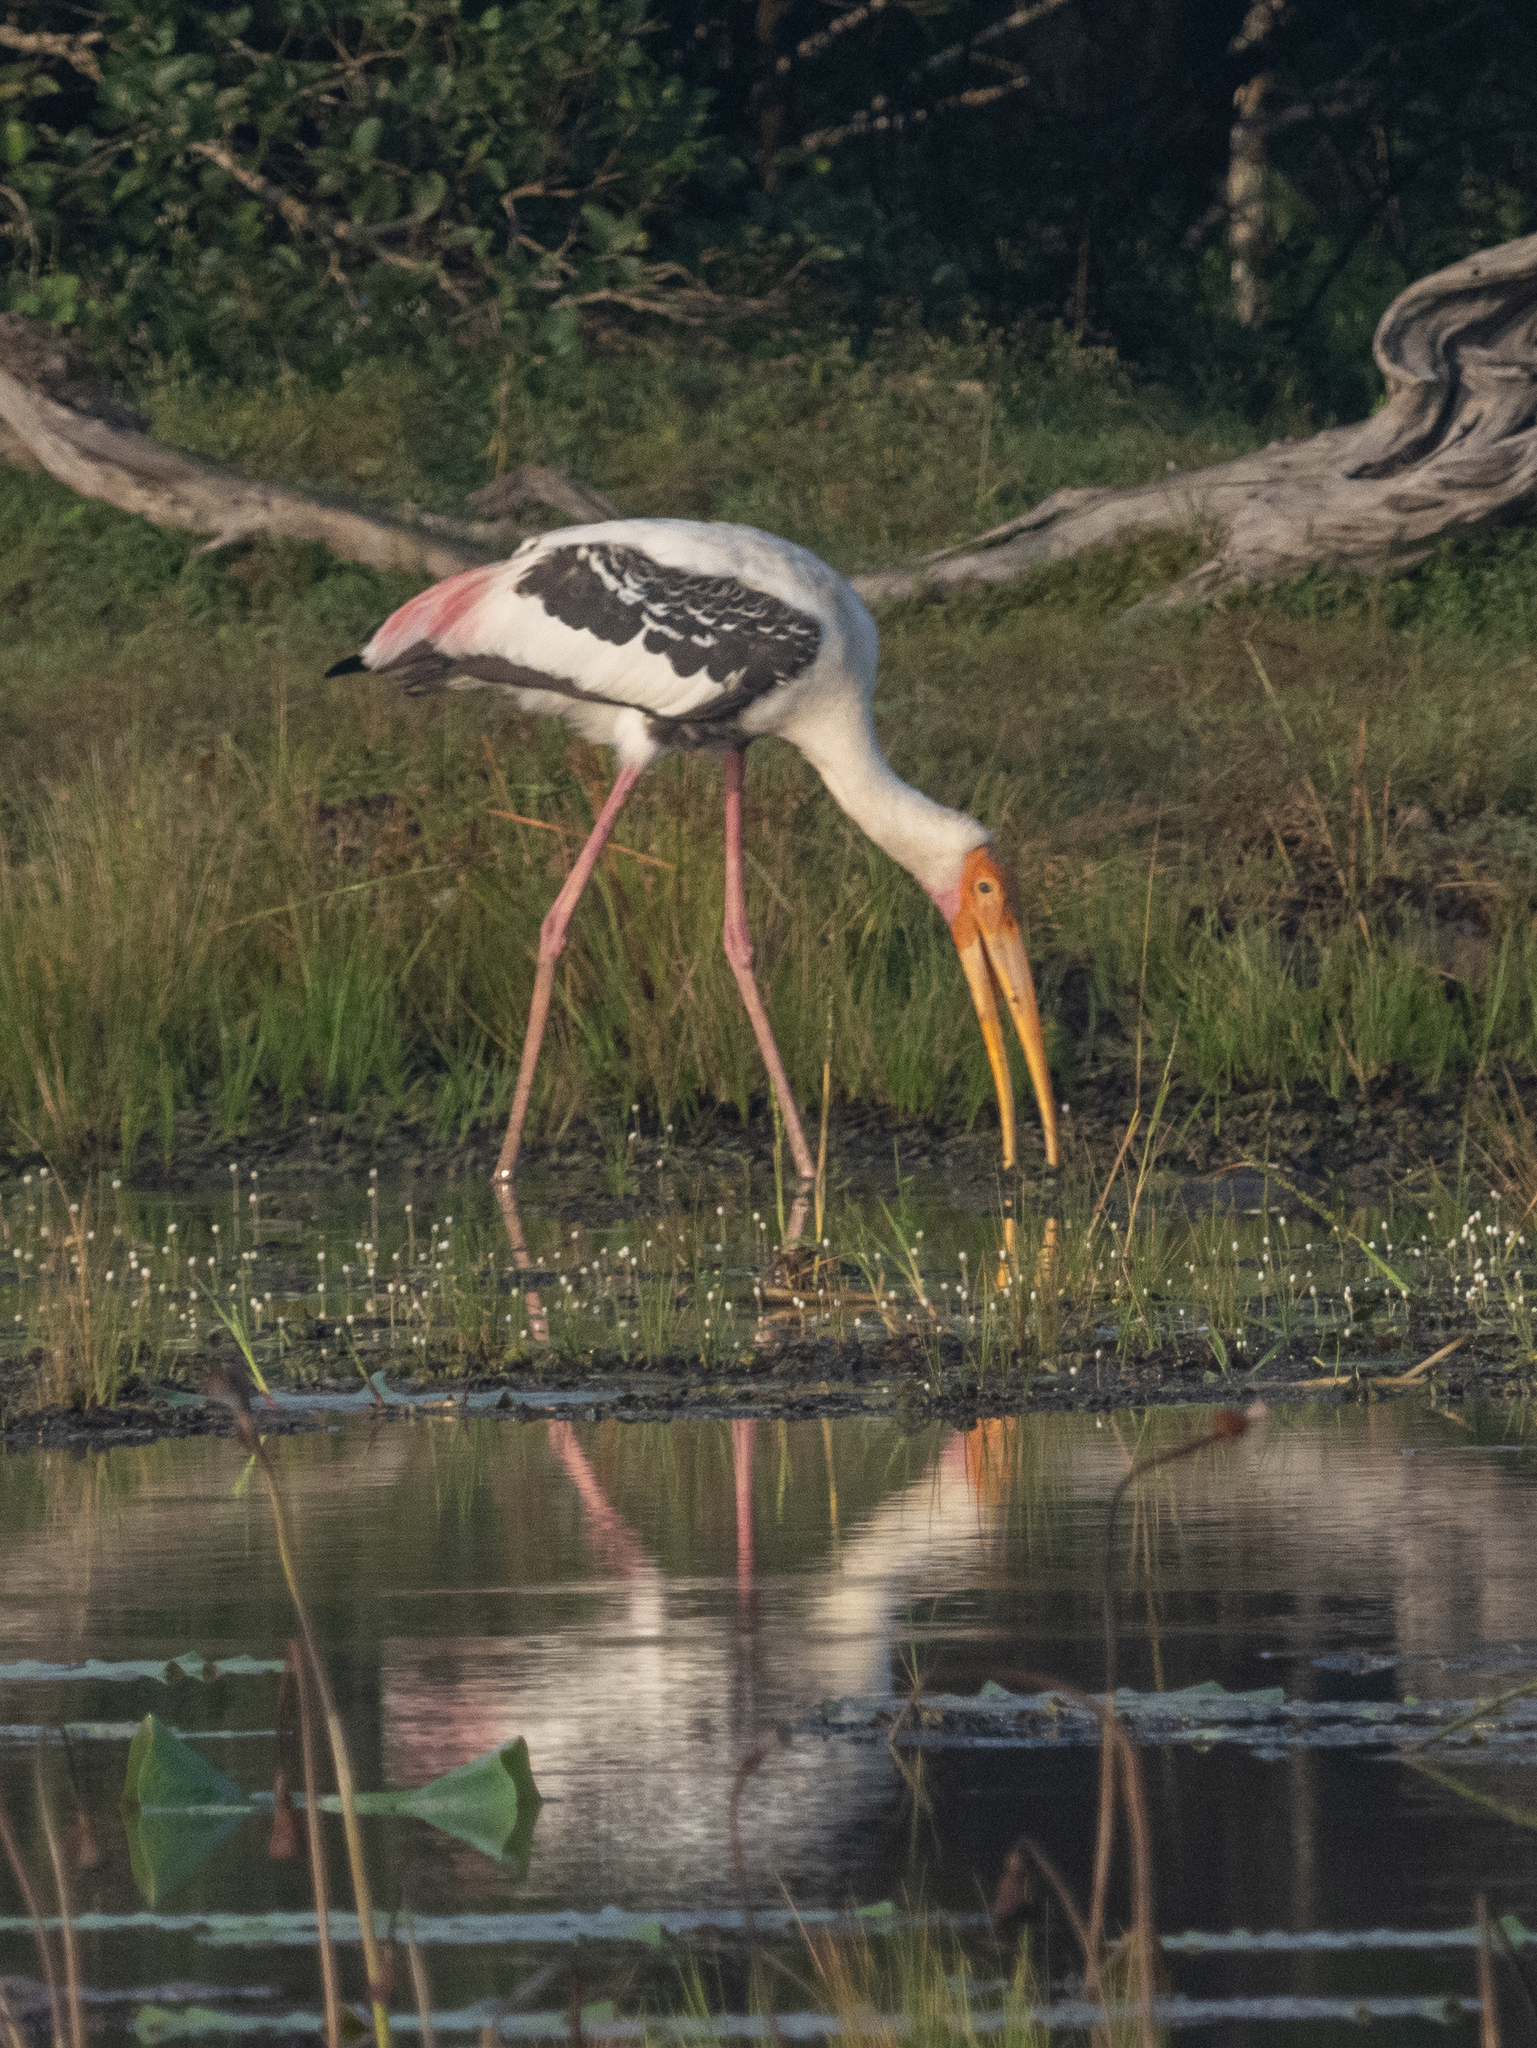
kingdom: Animalia
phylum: Chordata
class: Aves
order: Ciconiiformes
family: Ciconiidae
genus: Mycteria
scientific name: Mycteria leucocephala
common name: Painted stork
